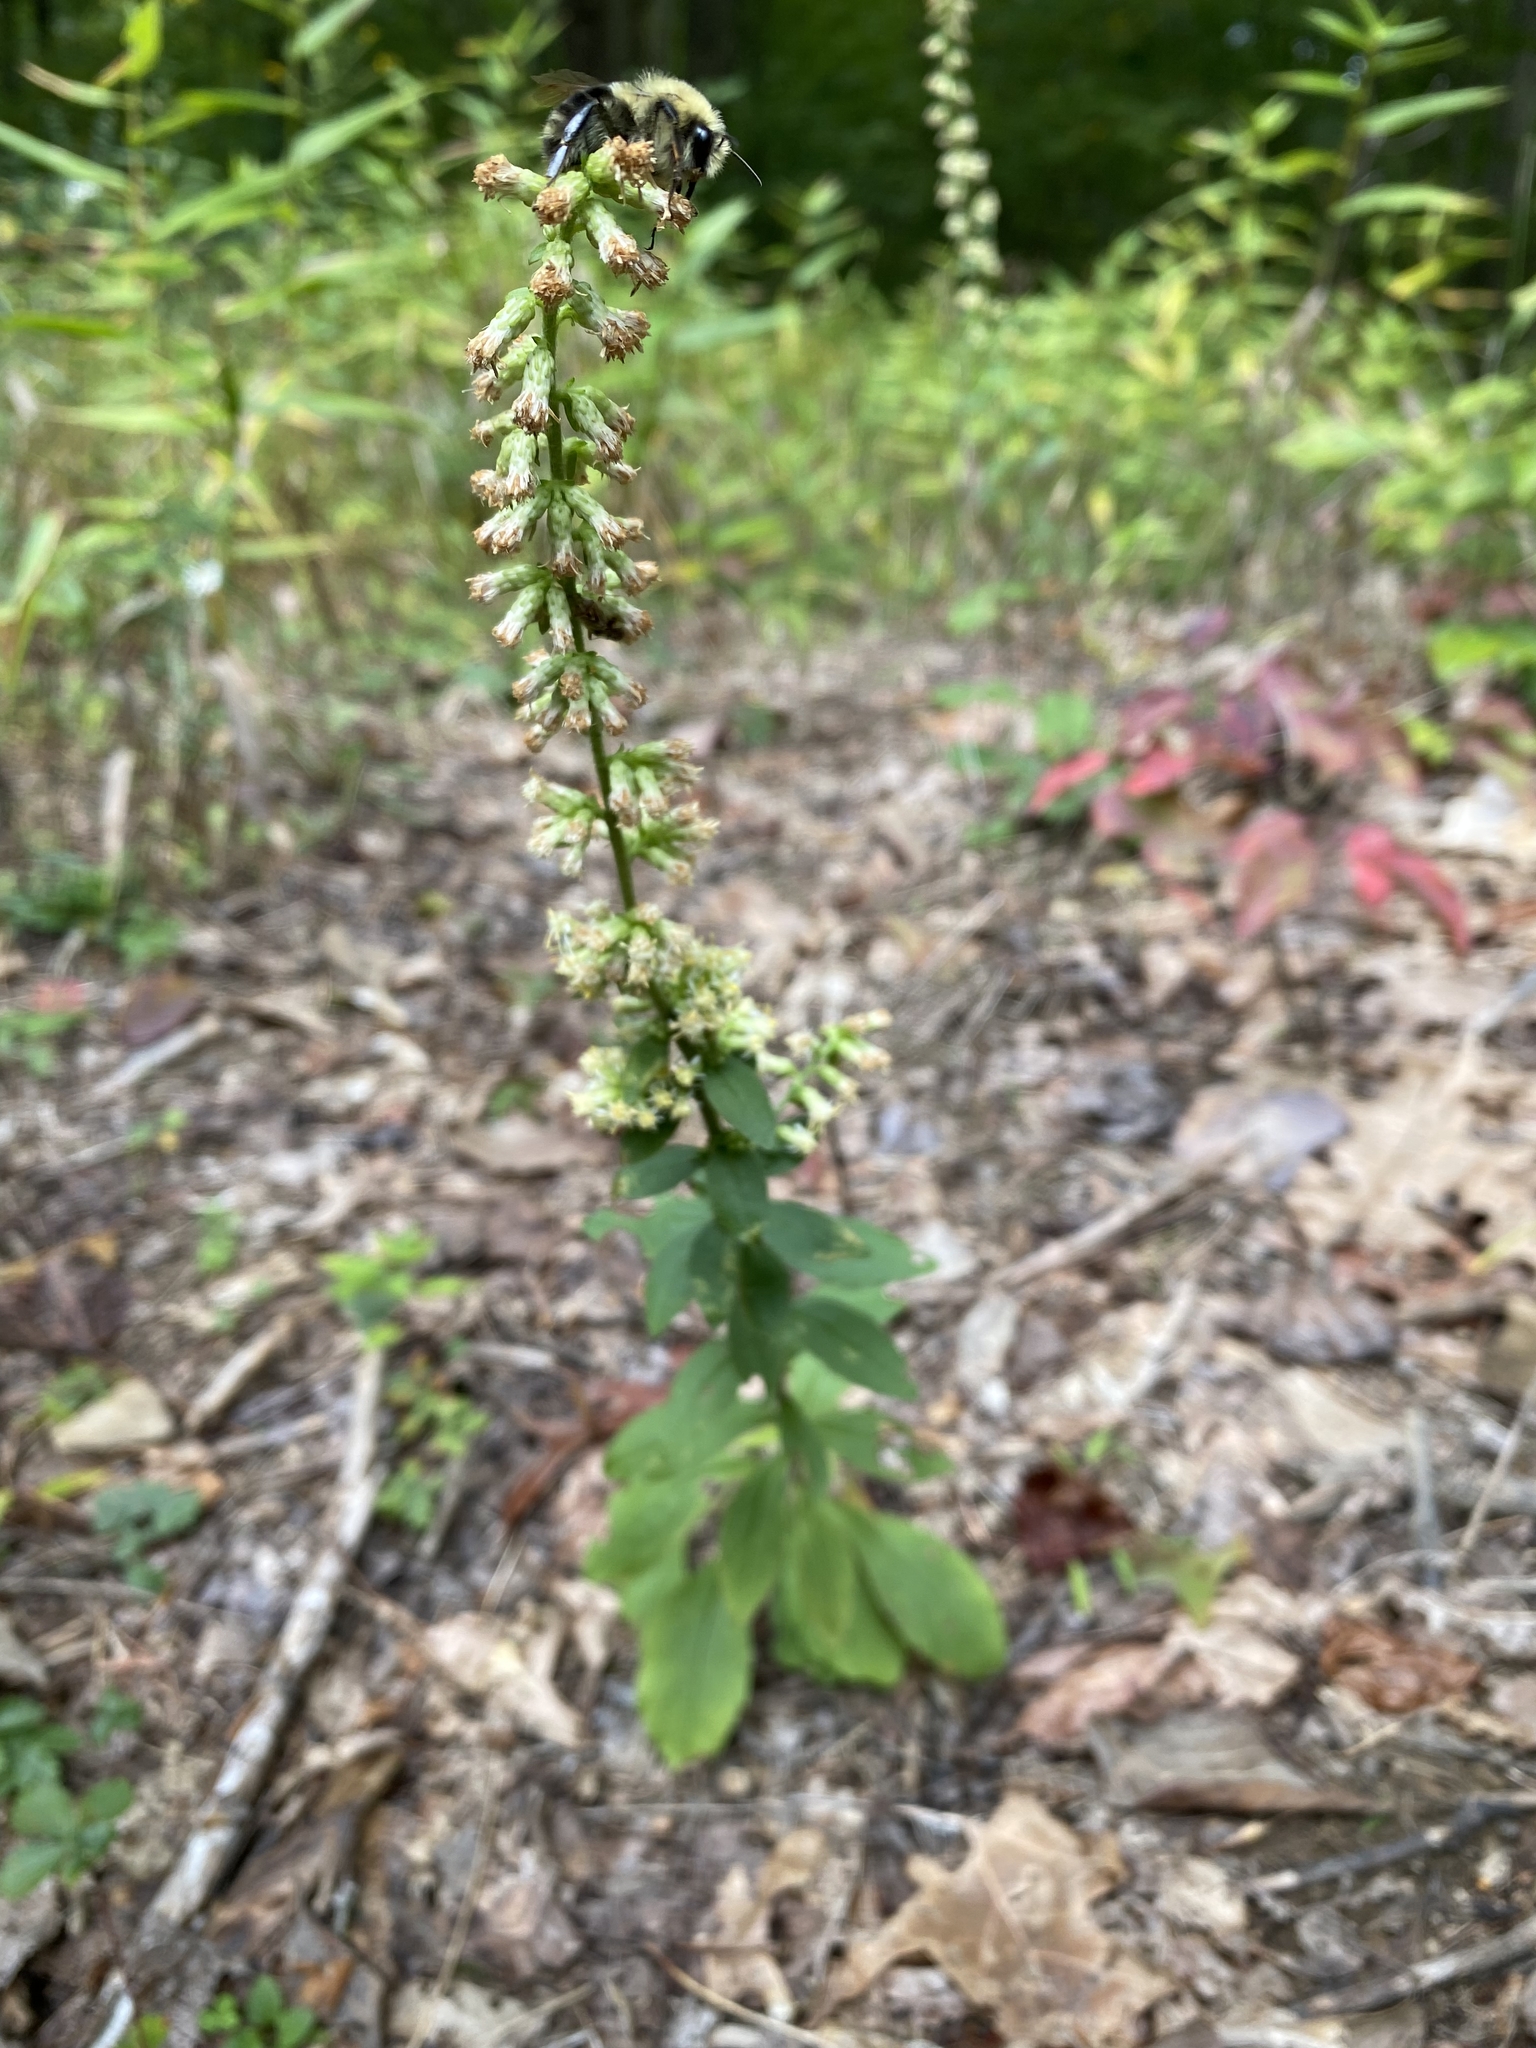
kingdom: Plantae
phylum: Tracheophyta
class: Magnoliopsida
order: Asterales
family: Asteraceae
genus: Solidago
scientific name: Solidago bicolor
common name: Silverrod
